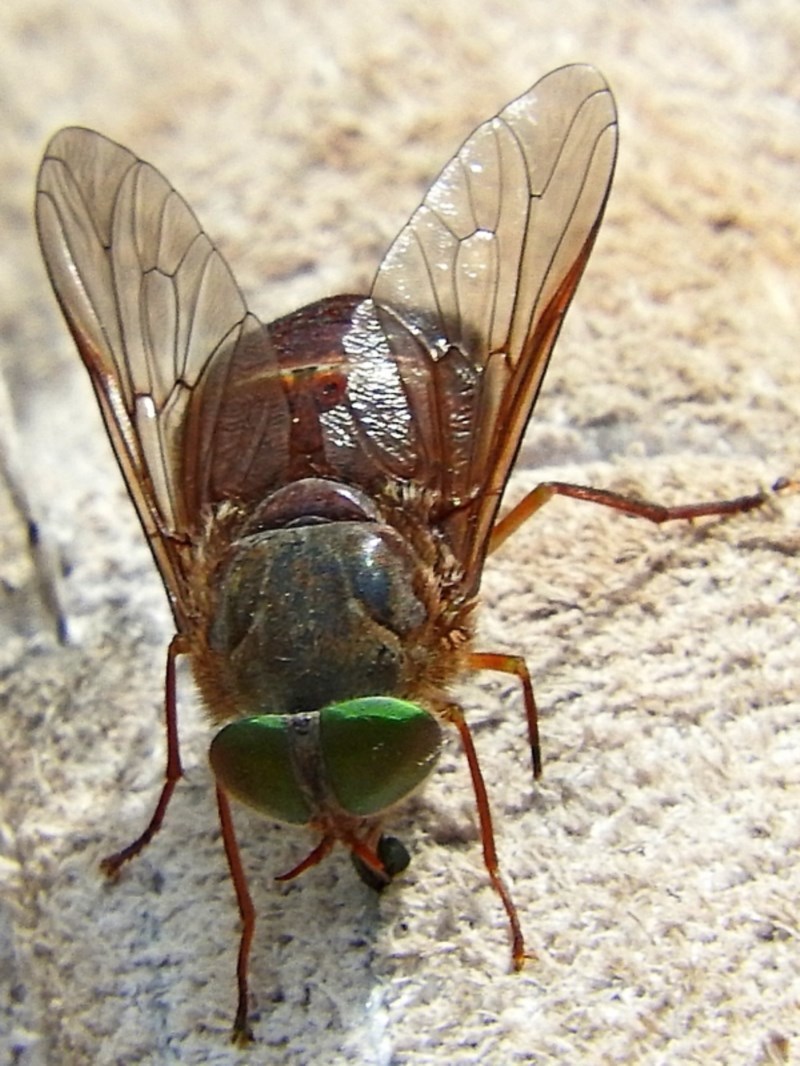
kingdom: Animalia
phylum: Arthropoda
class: Insecta
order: Diptera
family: Tabanidae
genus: Scaptia
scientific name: Scaptia similis
